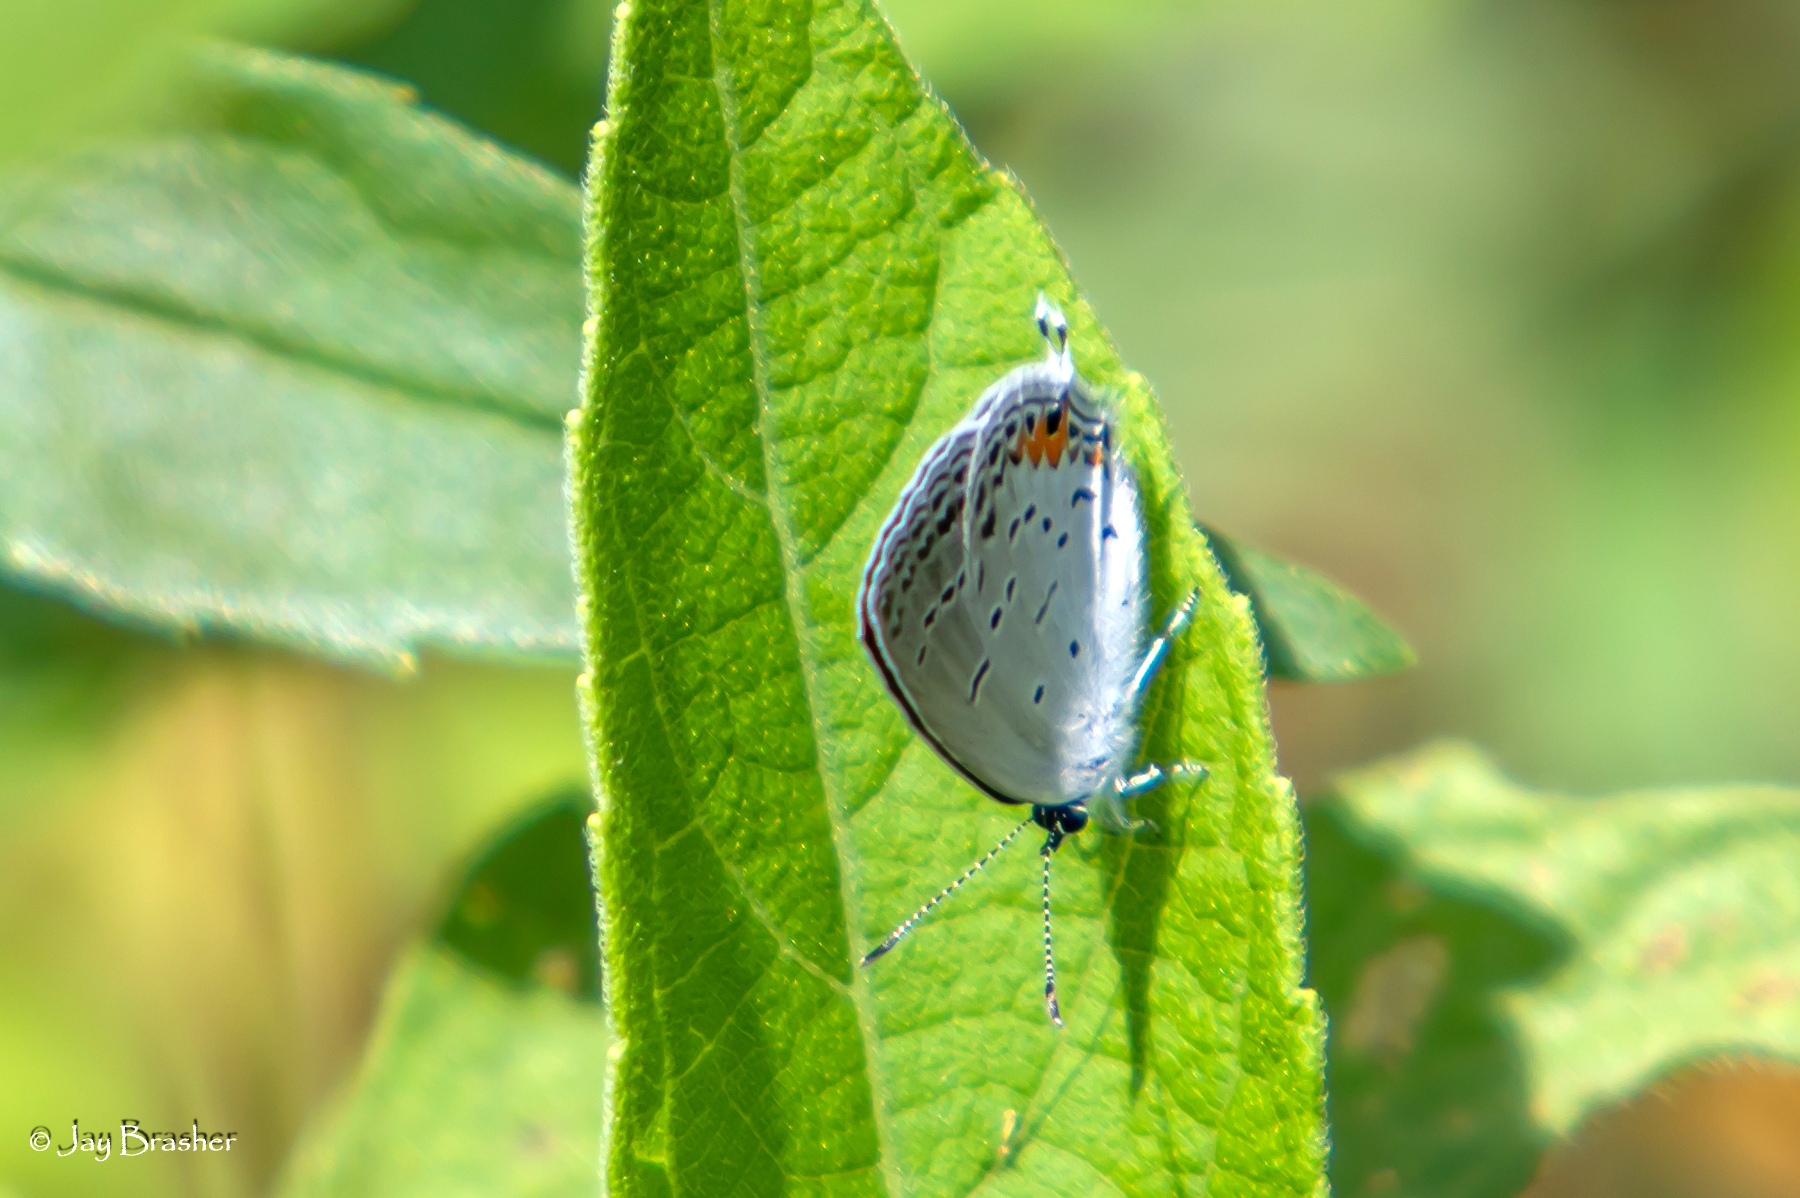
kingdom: Animalia
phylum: Arthropoda
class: Insecta
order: Lepidoptera
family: Lycaenidae
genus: Elkalyce
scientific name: Elkalyce comyntas
